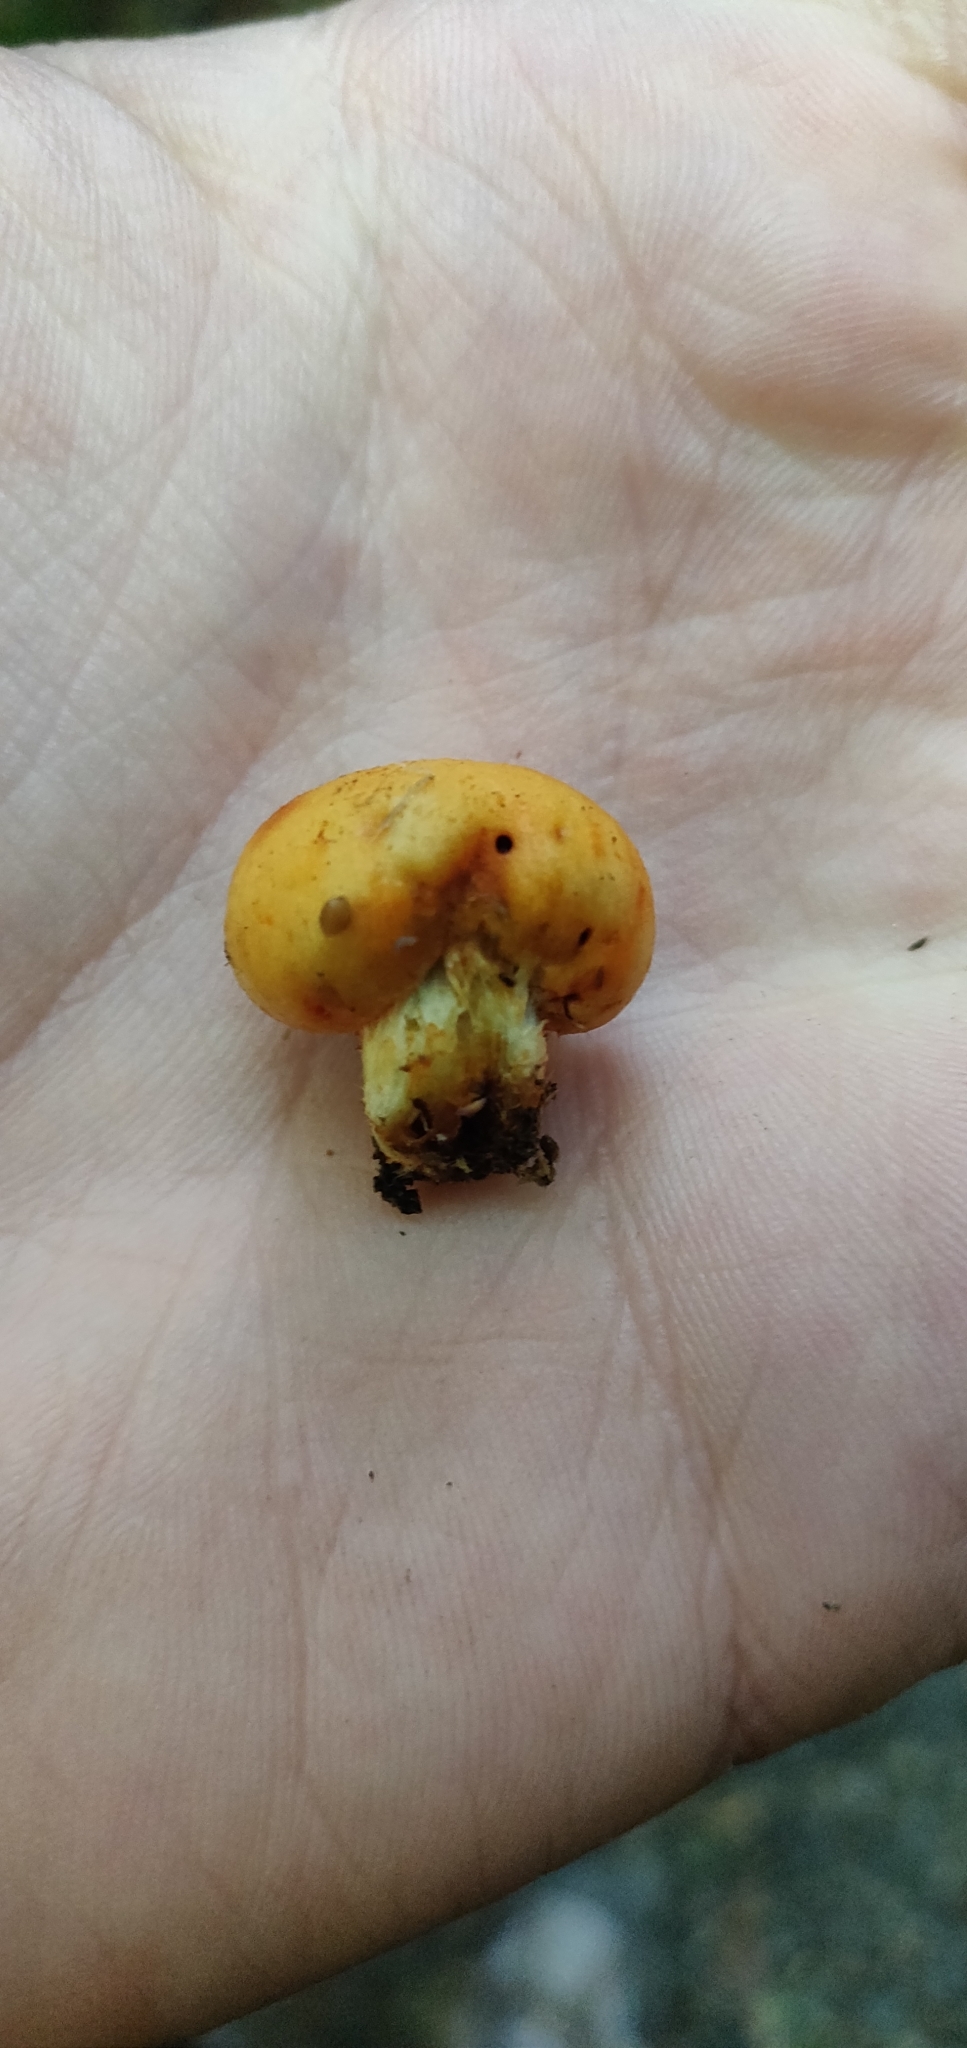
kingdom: Fungi
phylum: Basidiomycota
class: Agaricomycetes
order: Agaricales
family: Strophariaceae
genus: Leratiomyces
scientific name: Leratiomyces erythrocephalus
